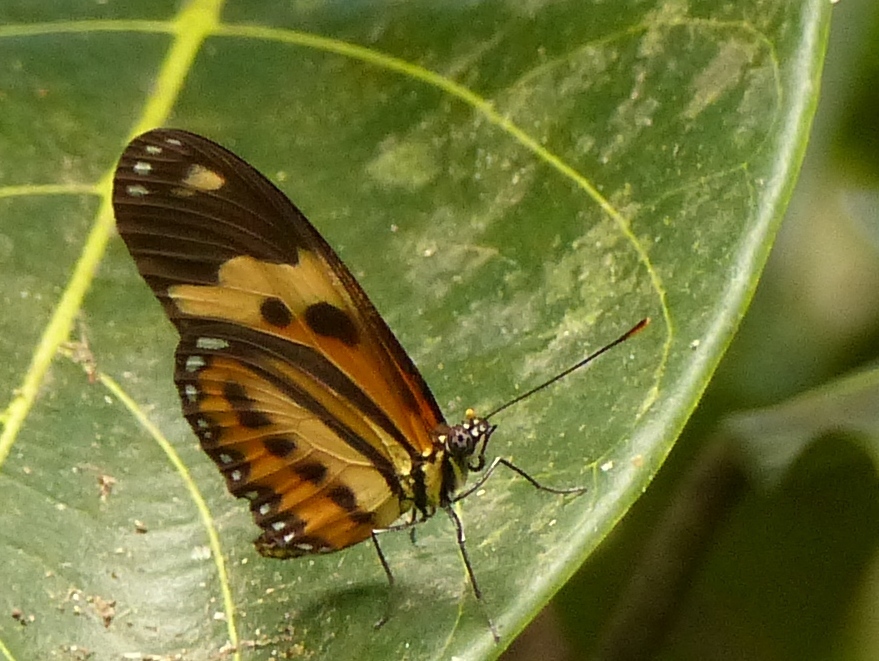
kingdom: Animalia
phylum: Arthropoda
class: Insecta
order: Lepidoptera
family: Nymphalidae
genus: Eueides
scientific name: Eueides isabella
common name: Isabella's longwing
